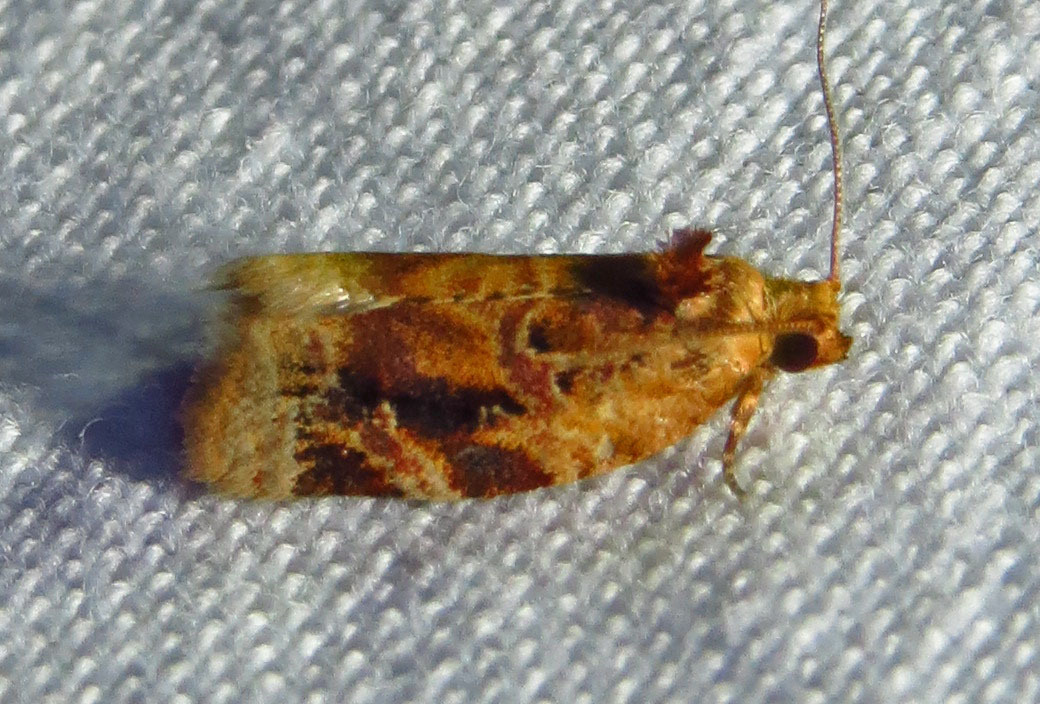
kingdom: Animalia
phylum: Arthropoda
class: Insecta
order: Lepidoptera
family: Tortricidae
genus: Argyrotaenia
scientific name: Argyrotaenia velutinana
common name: Red-banded leafroller moth
